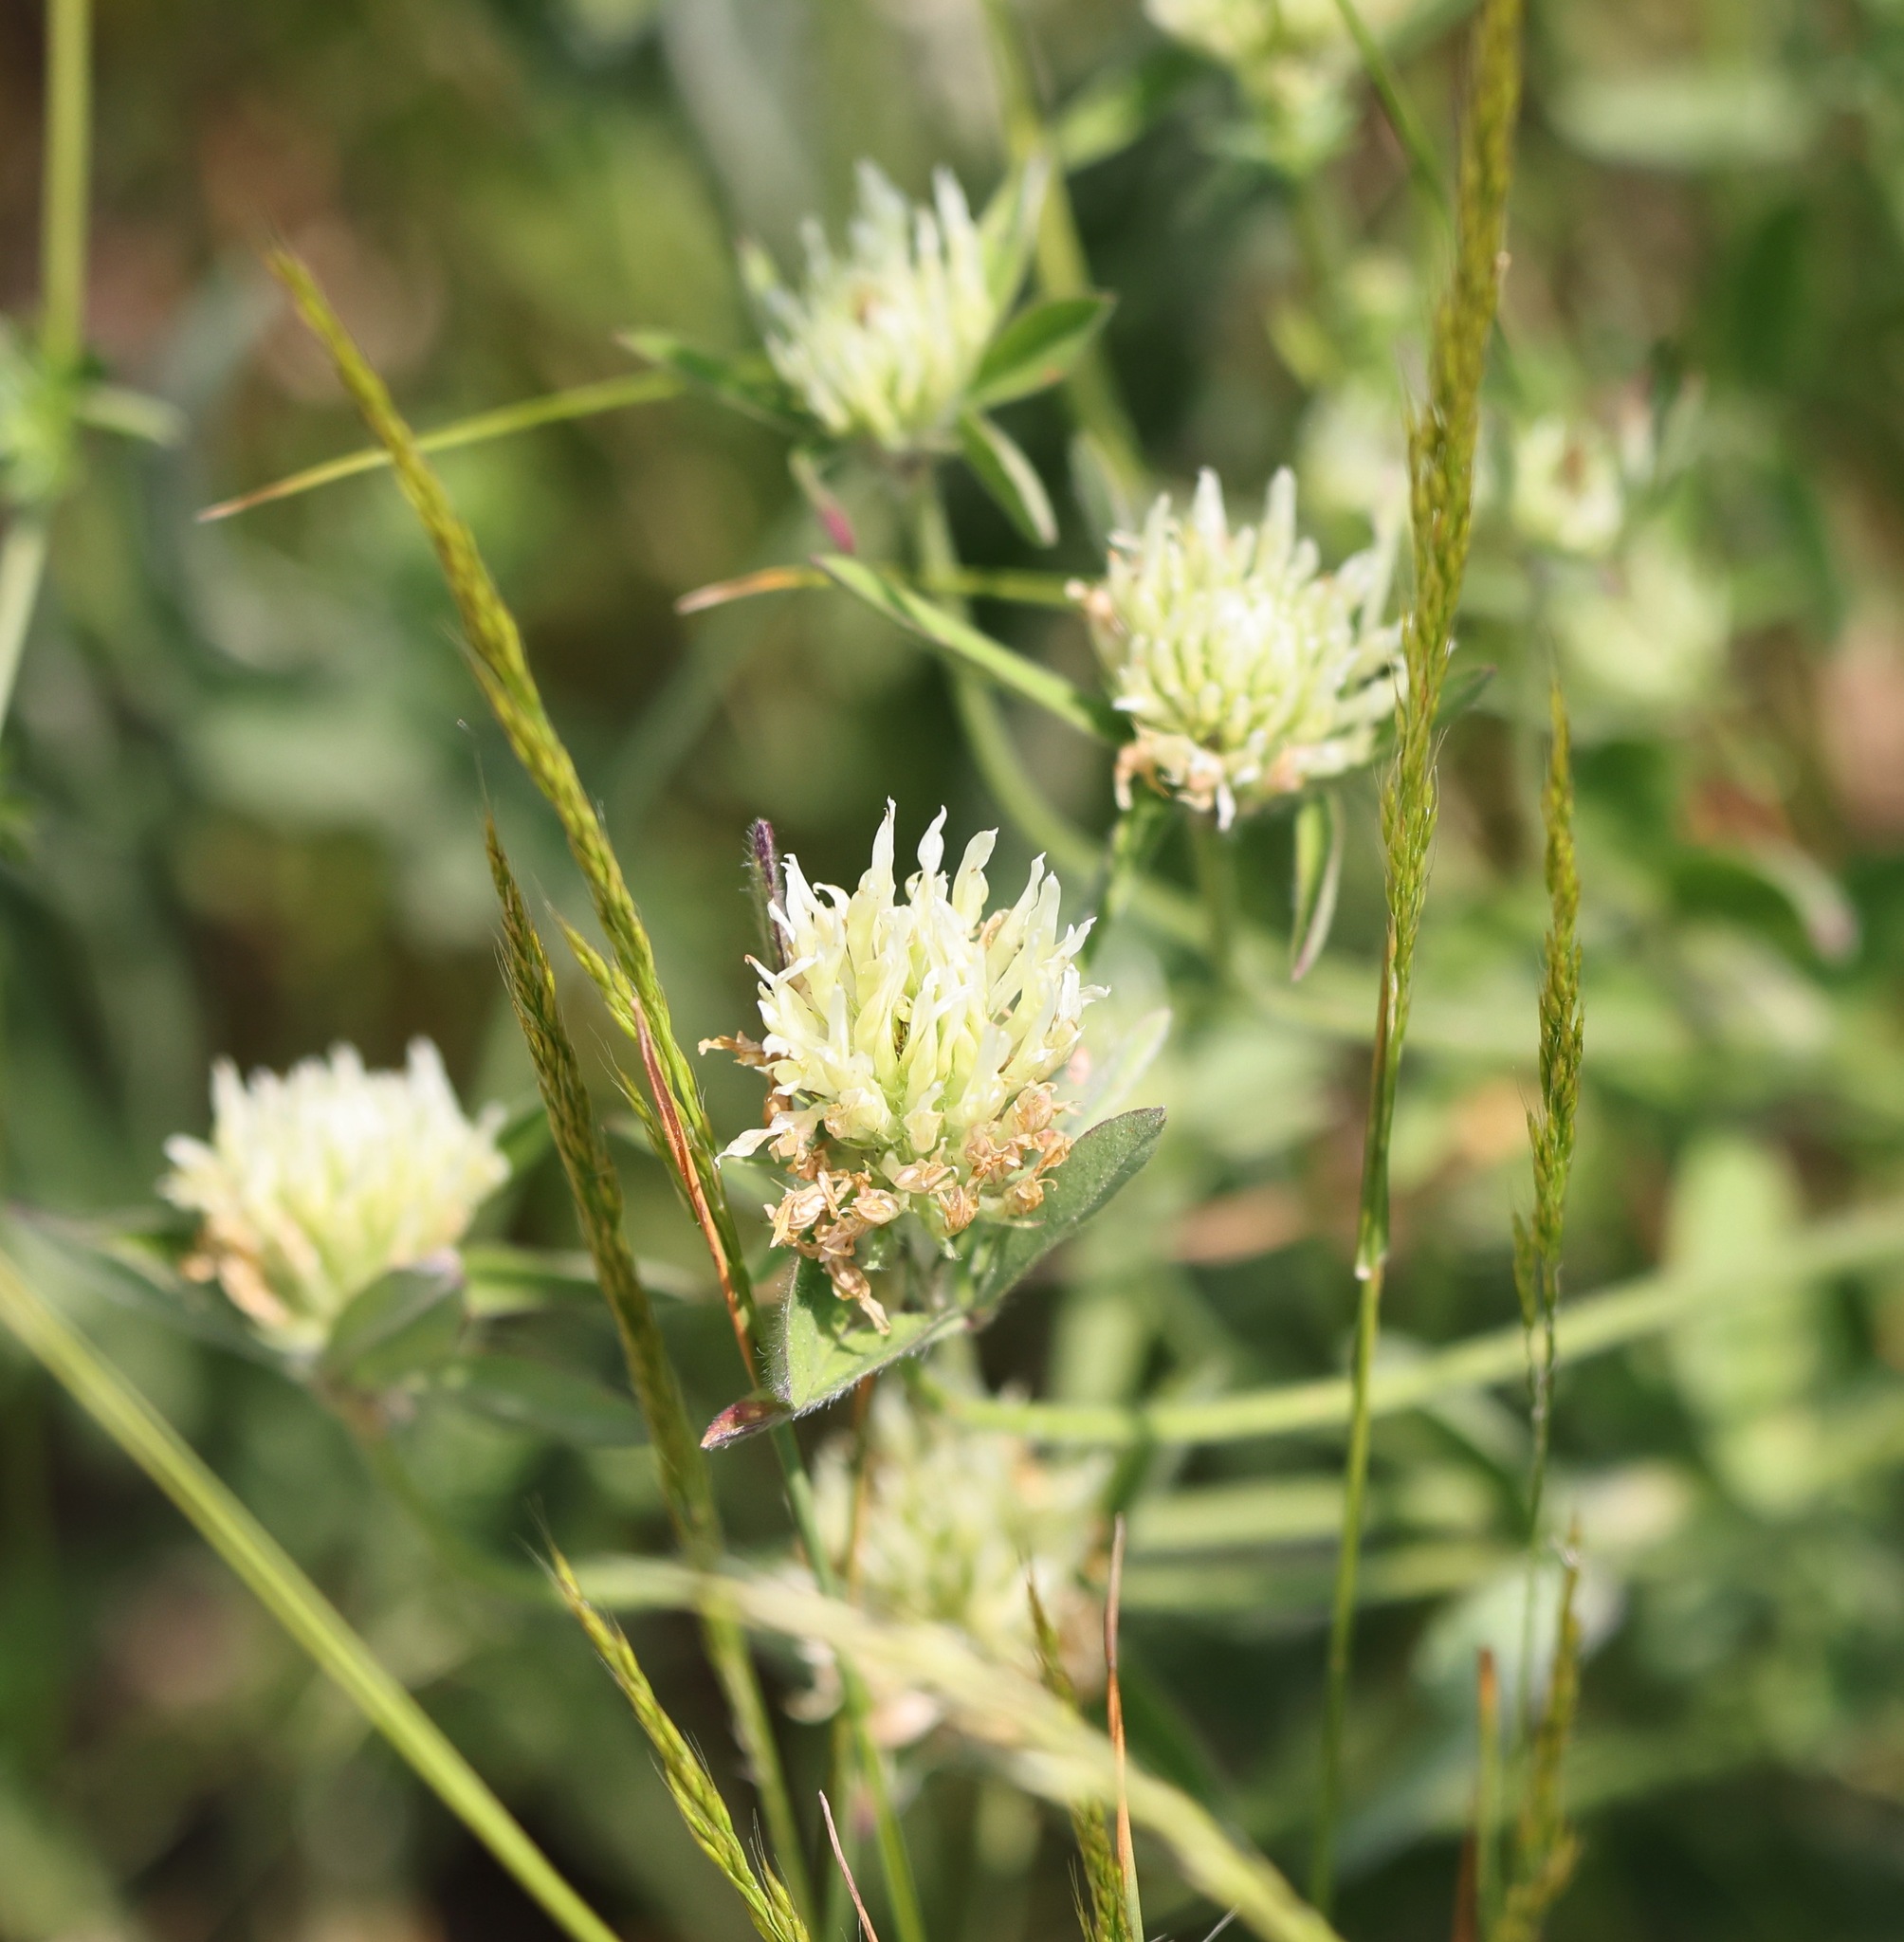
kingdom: Plantae
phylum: Tracheophyta
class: Magnoliopsida
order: Fabales
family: Fabaceae
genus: Trifolium
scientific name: Trifolium ochroleucon
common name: Sulphur clover
